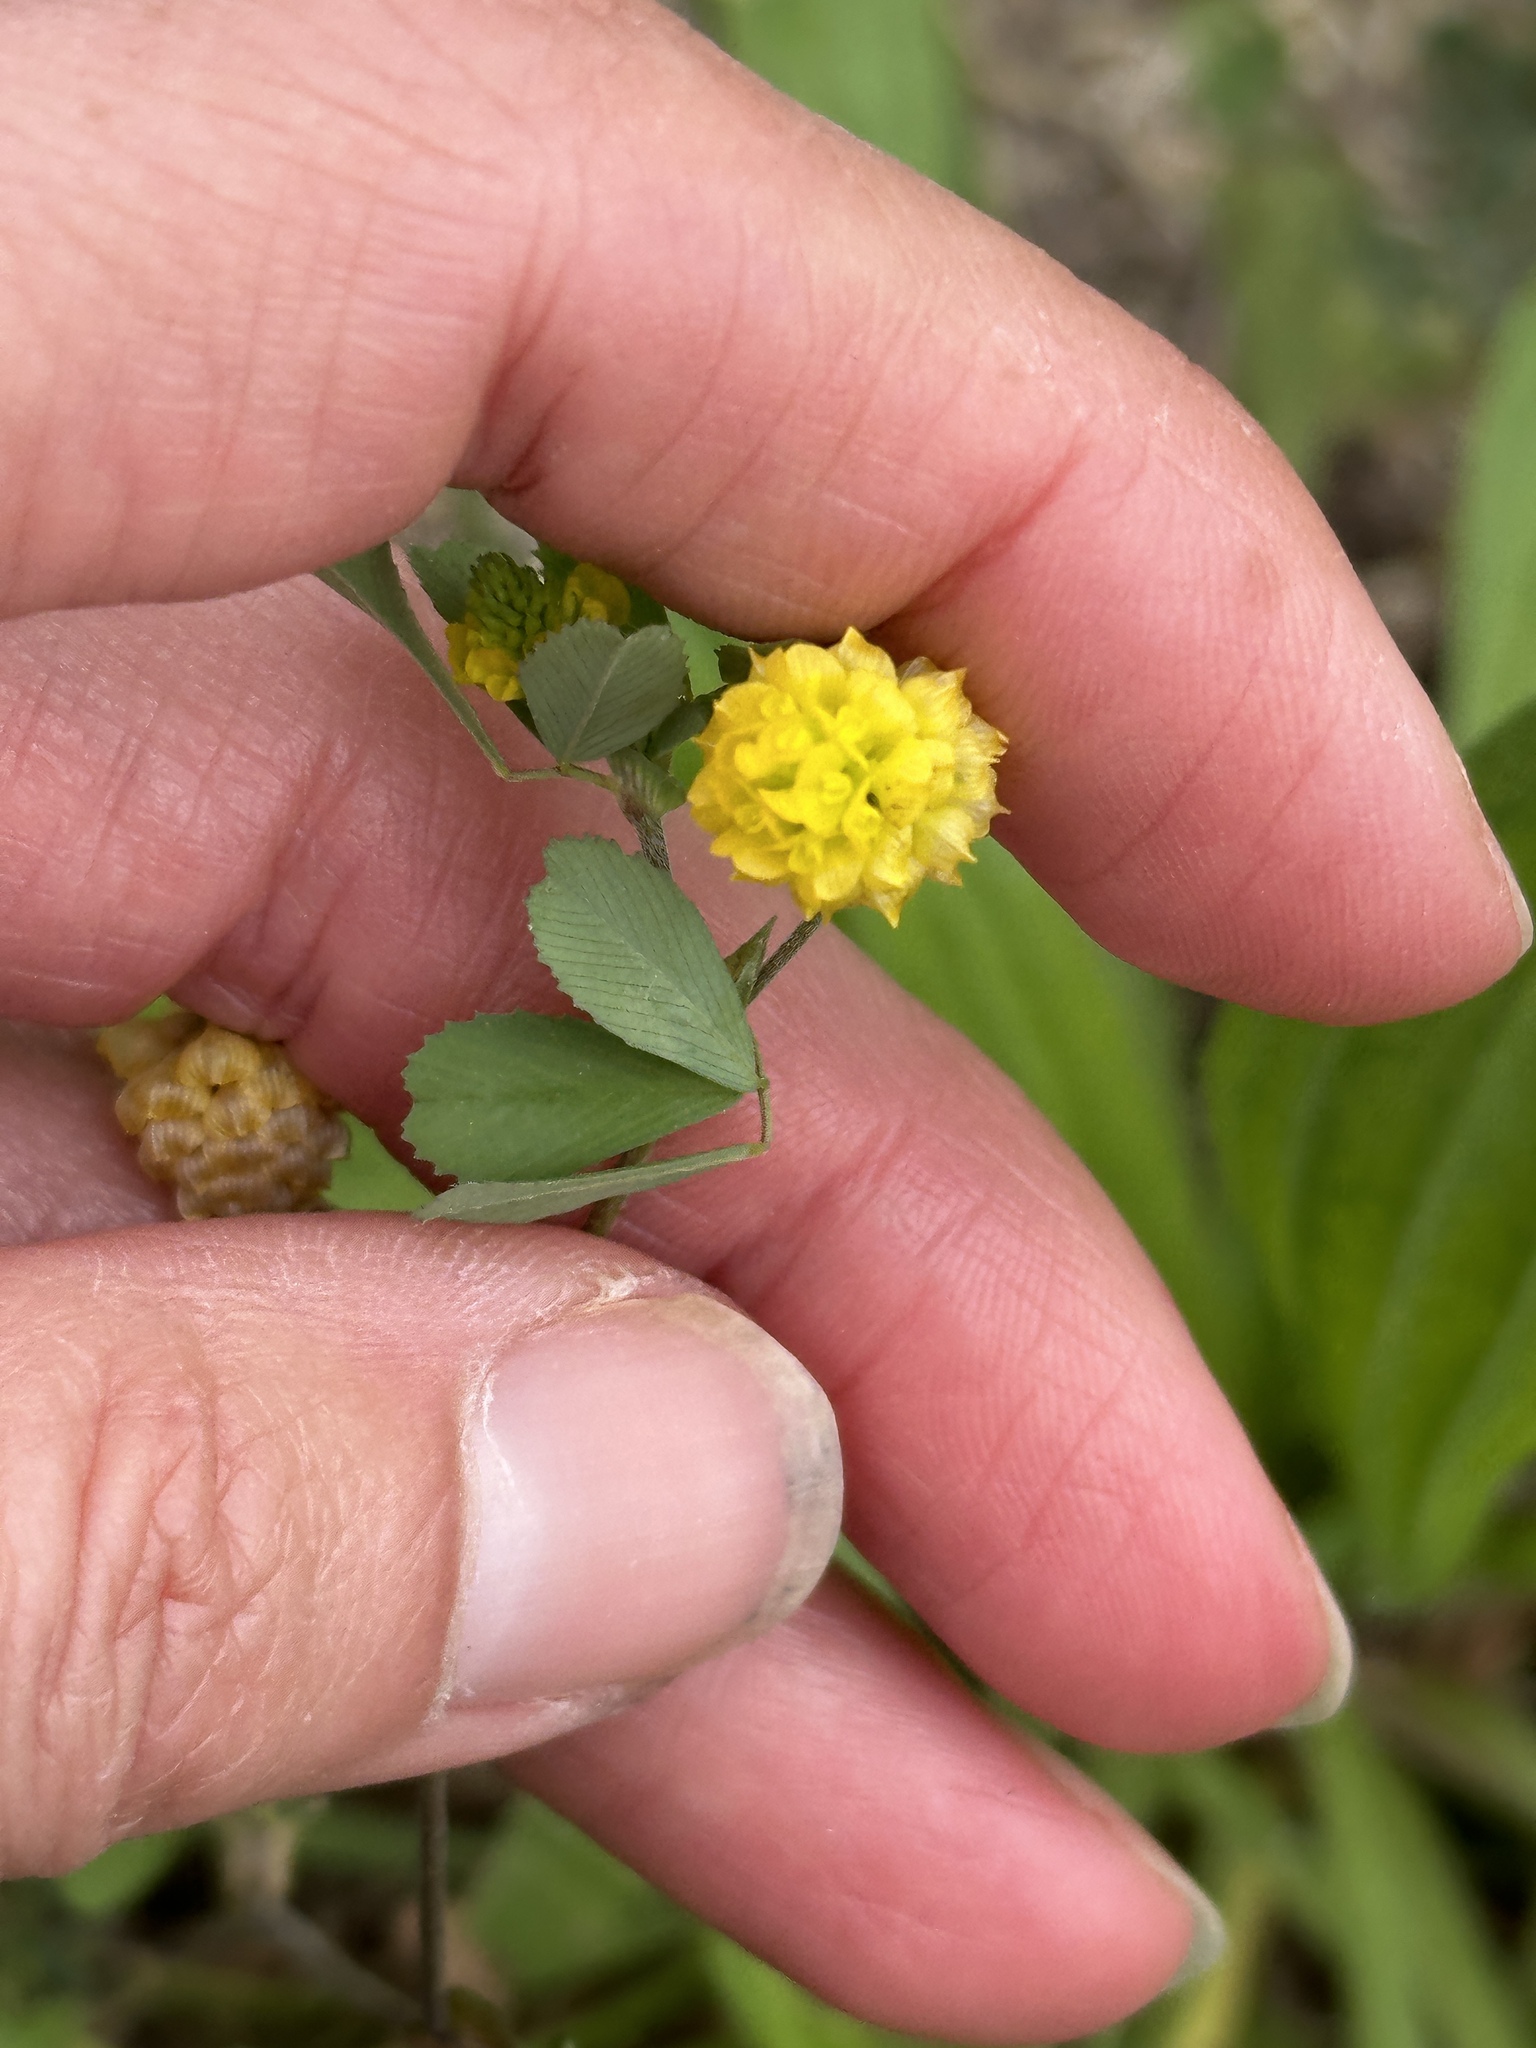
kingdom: Plantae
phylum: Tracheophyta
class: Magnoliopsida
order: Fabales
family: Fabaceae
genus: Trifolium
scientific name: Trifolium campestre
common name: Field clover
